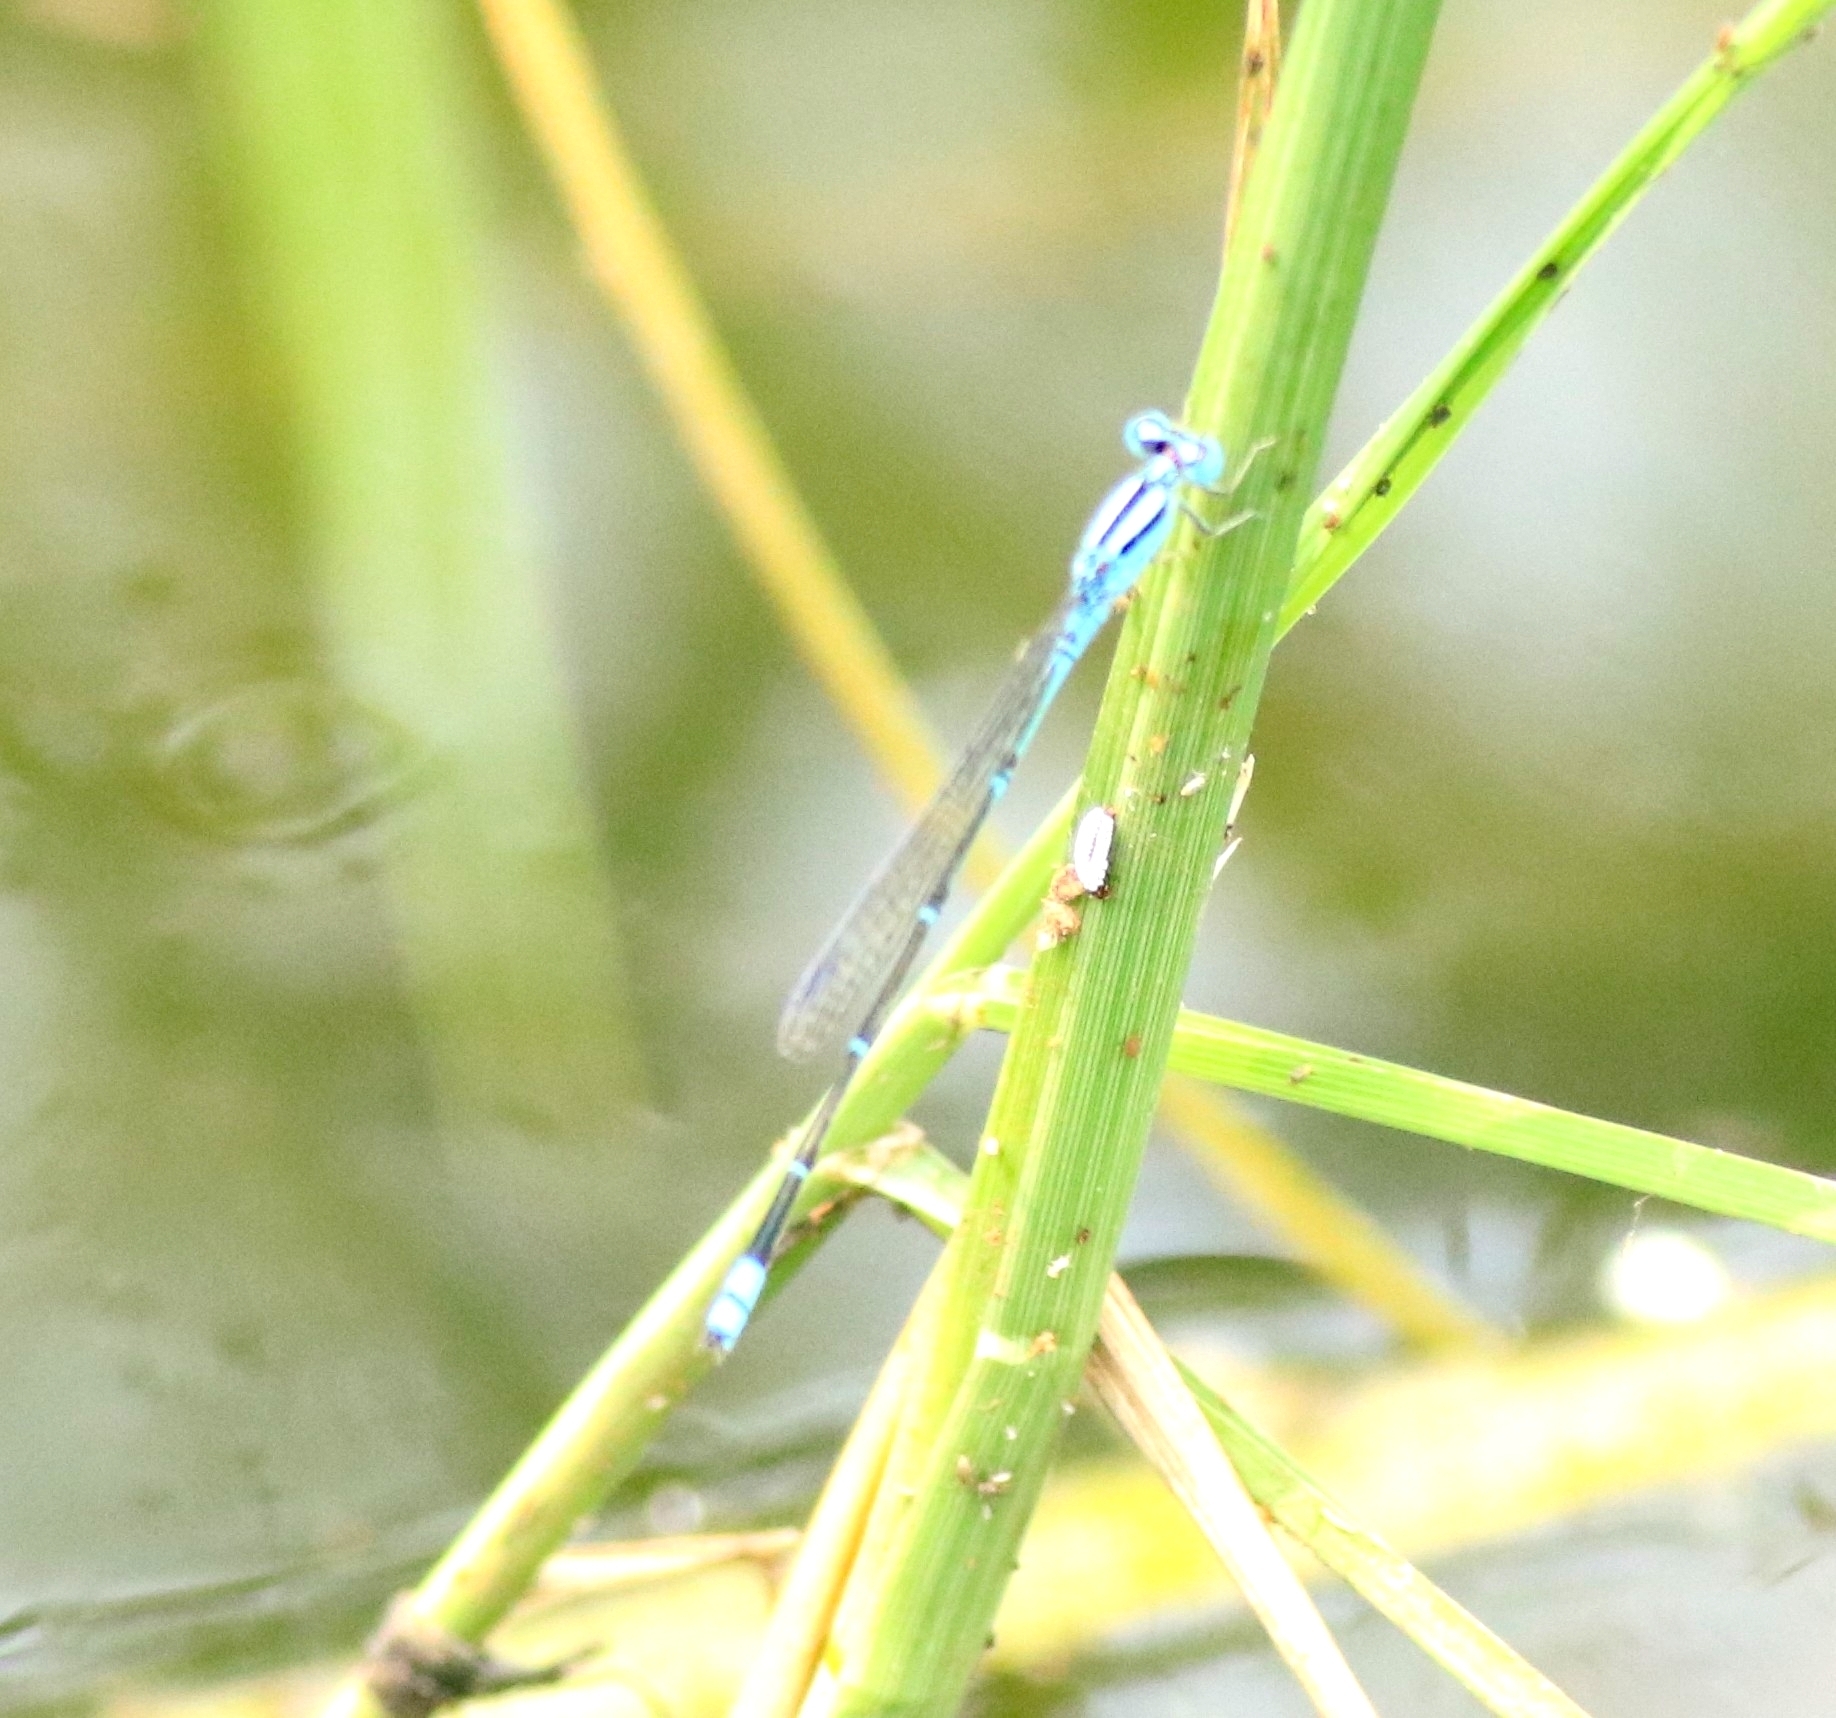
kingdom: Animalia
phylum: Arthropoda
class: Insecta
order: Odonata
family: Coenagrionidae
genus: Pseudagrion
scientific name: Pseudagrion microcephalum
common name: Blue riverdamsel
